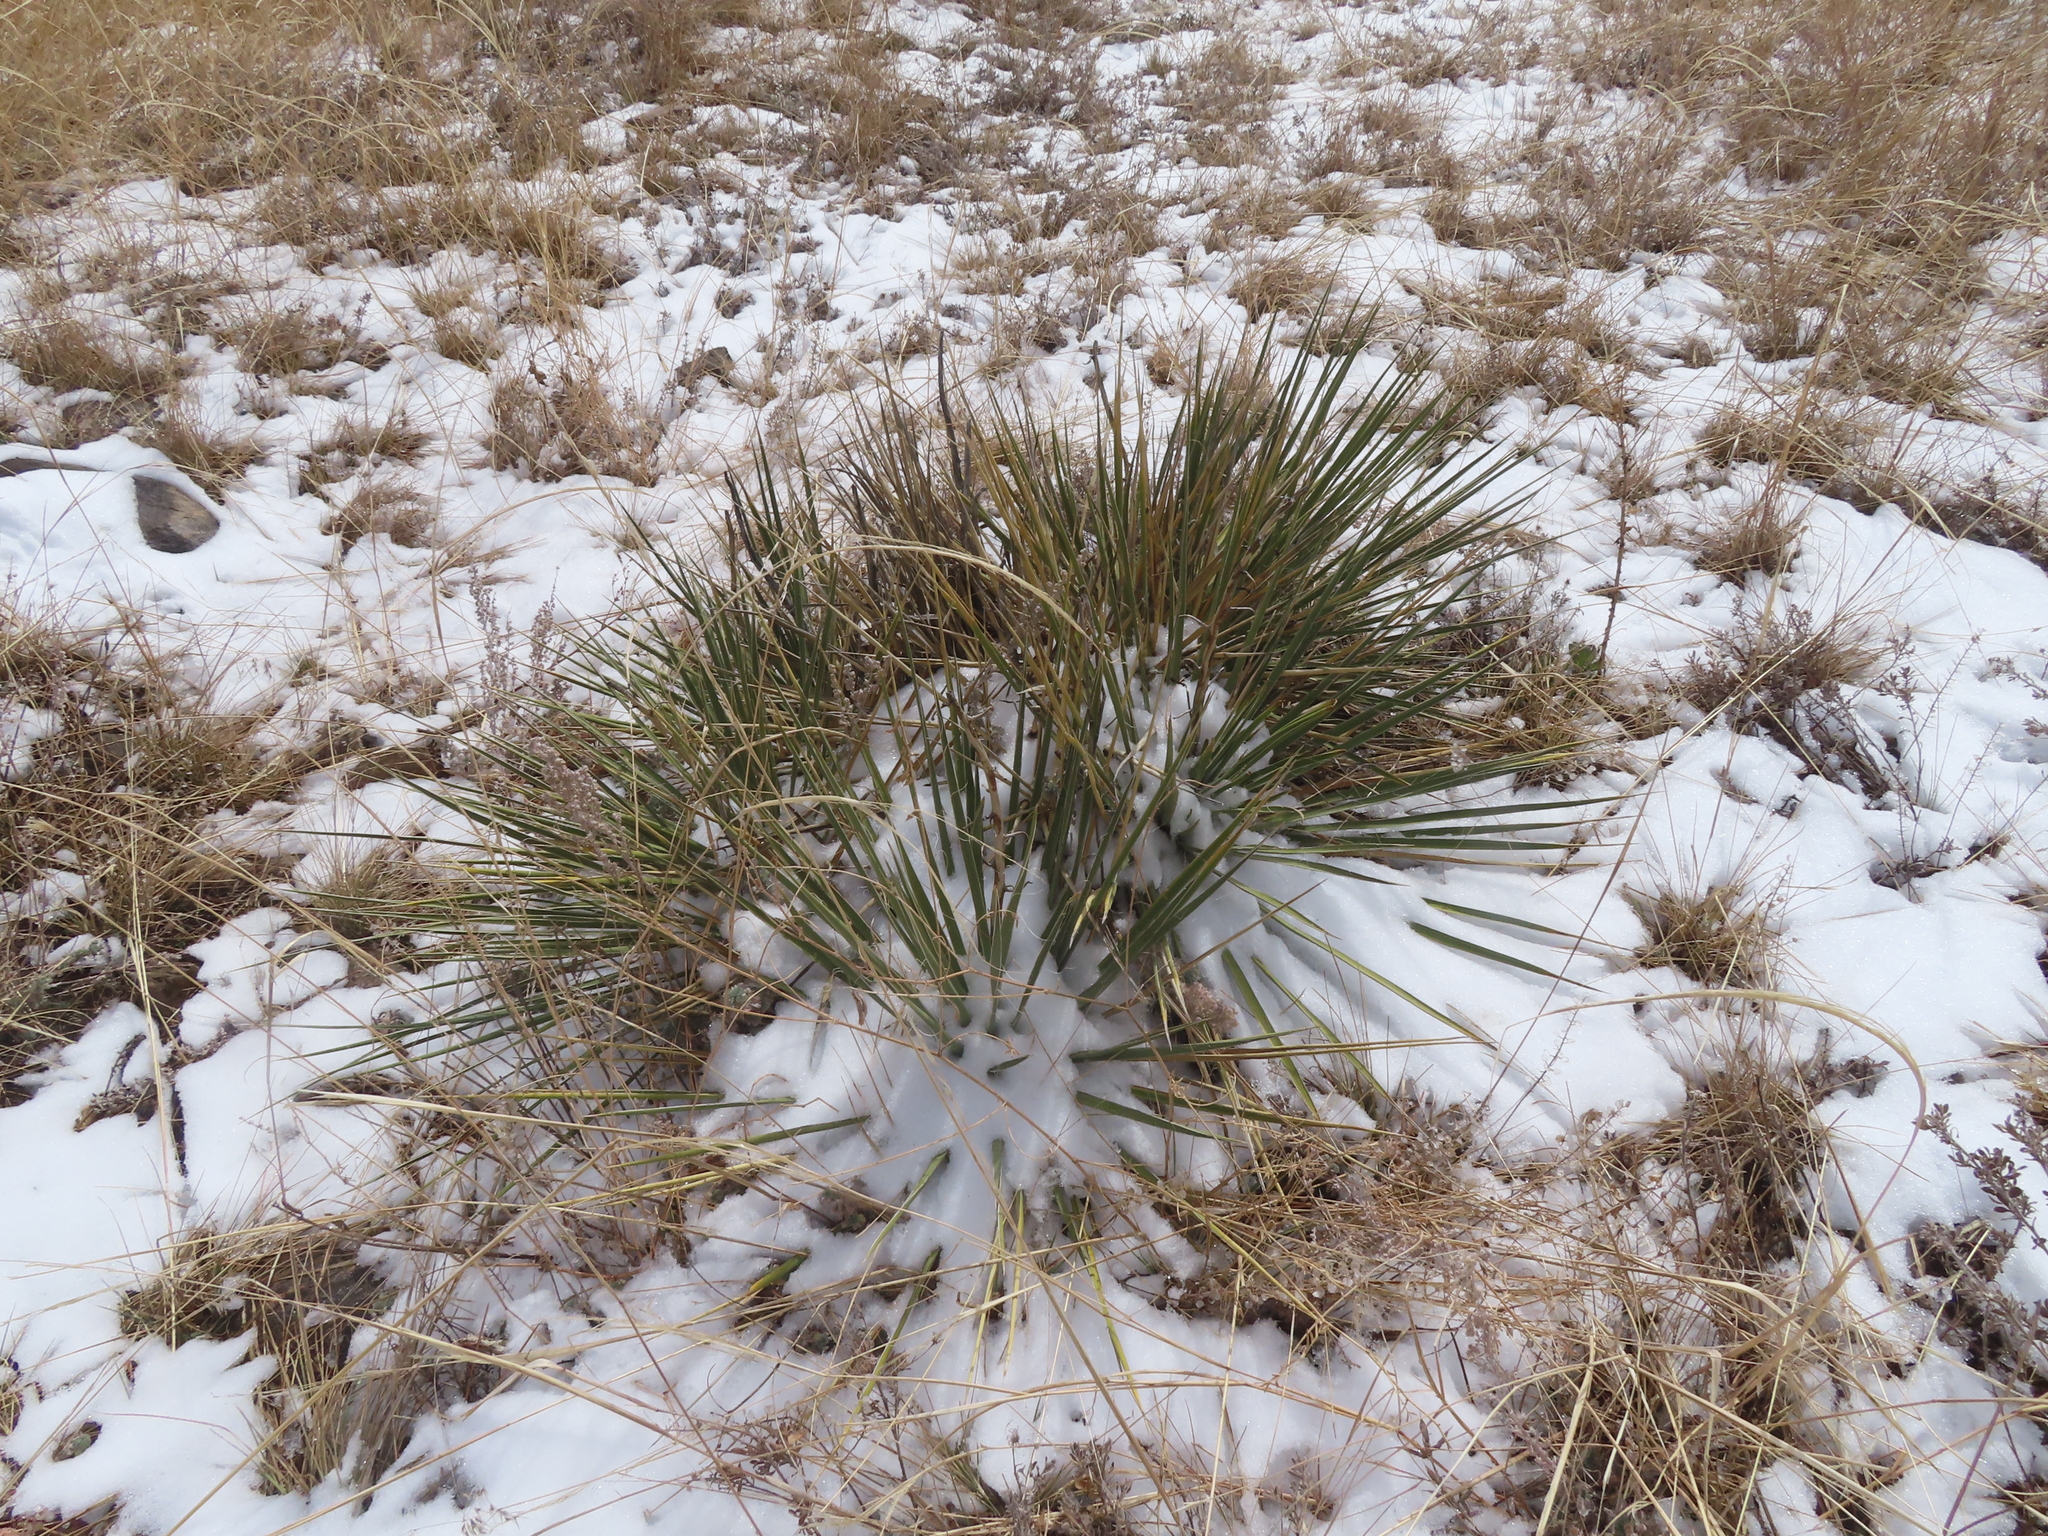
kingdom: Plantae
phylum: Tracheophyta
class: Liliopsida
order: Asparagales
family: Asparagaceae
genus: Yucca
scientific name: Yucca glauca
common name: Great plains yucca
